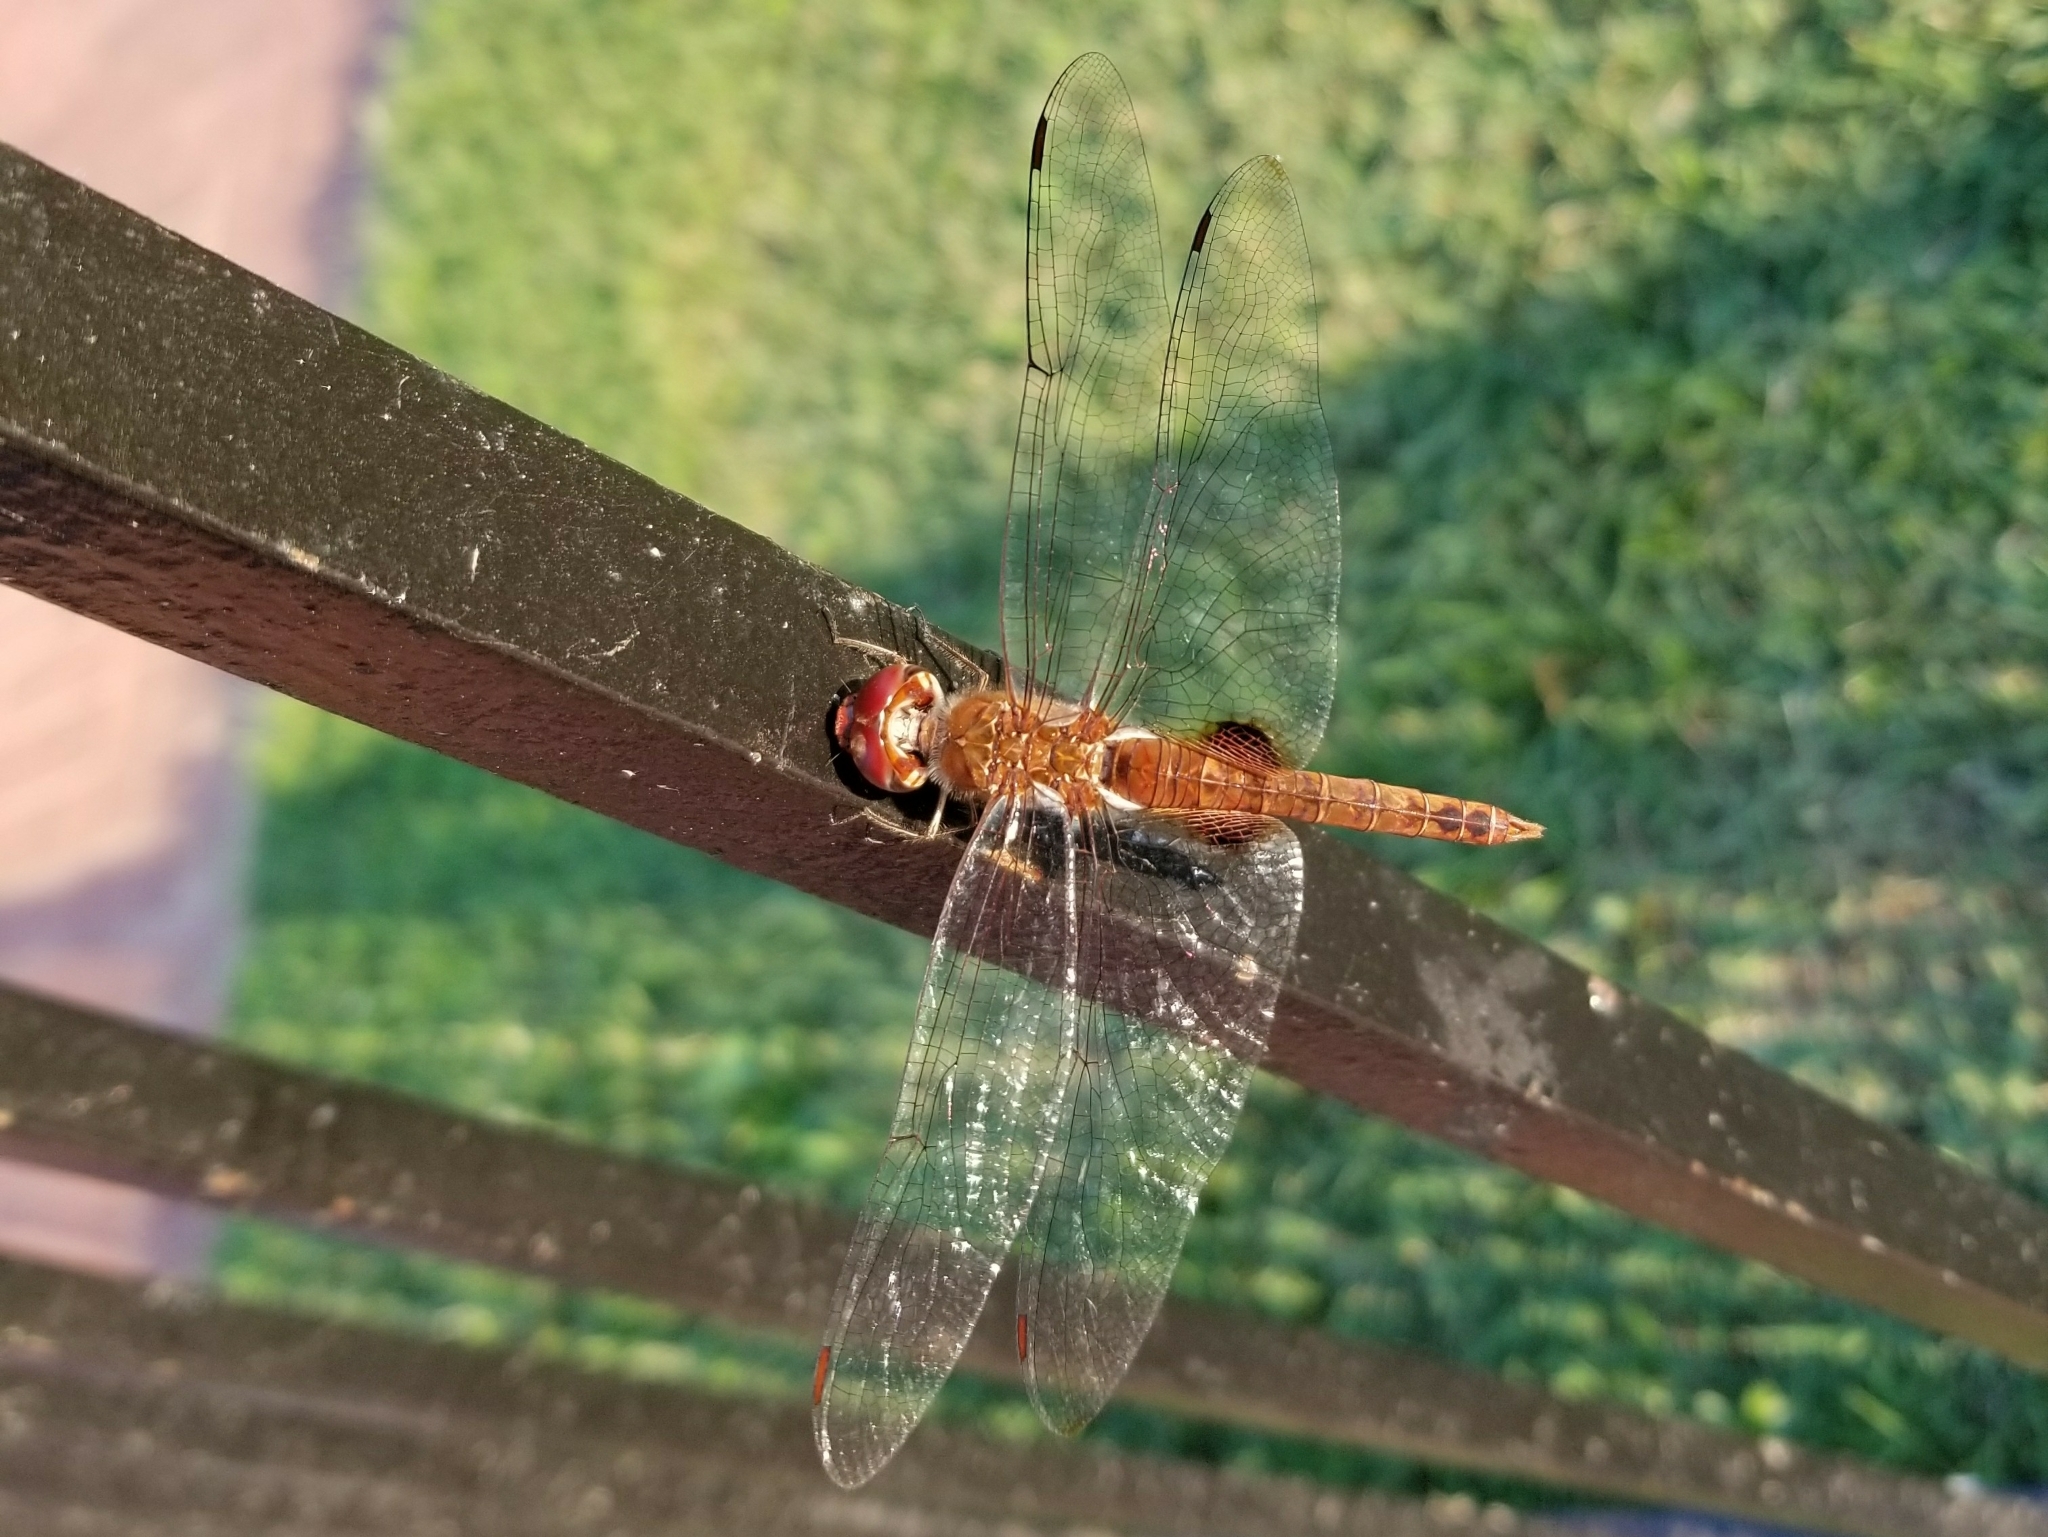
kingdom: Animalia
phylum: Arthropoda
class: Insecta
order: Odonata
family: Libellulidae
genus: Pantala
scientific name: Pantala hymenaea
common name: Spot-winged glider
